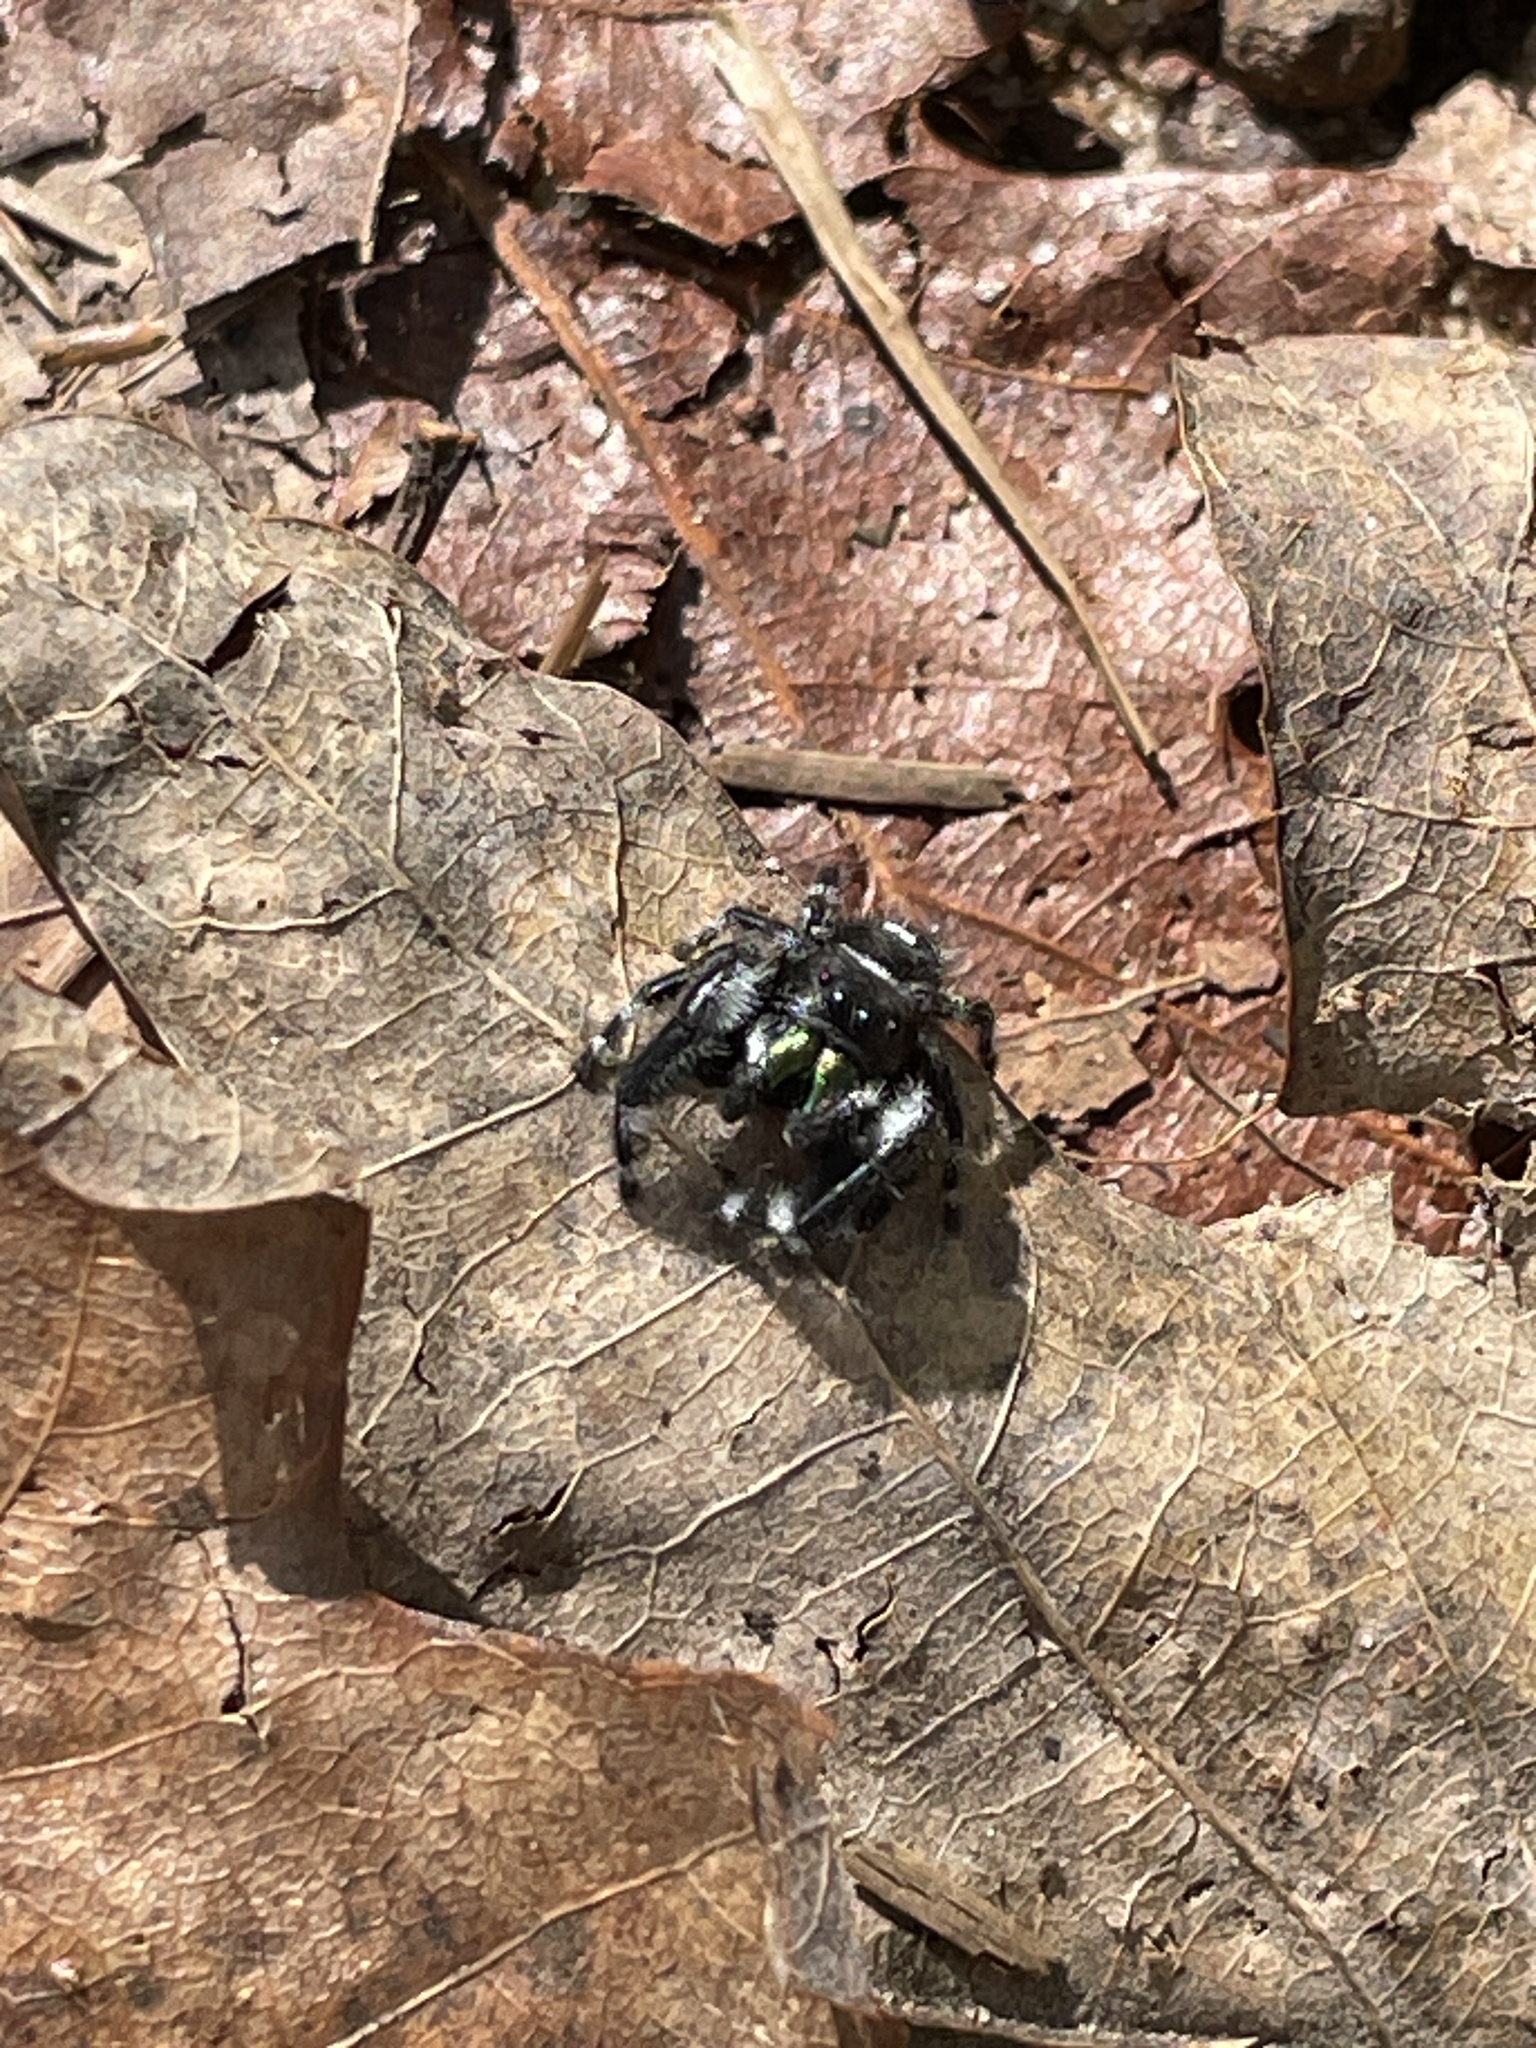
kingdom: Animalia
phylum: Arthropoda
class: Arachnida
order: Araneae
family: Salticidae
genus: Phidippus
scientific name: Phidippus audax
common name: Bold jumper
